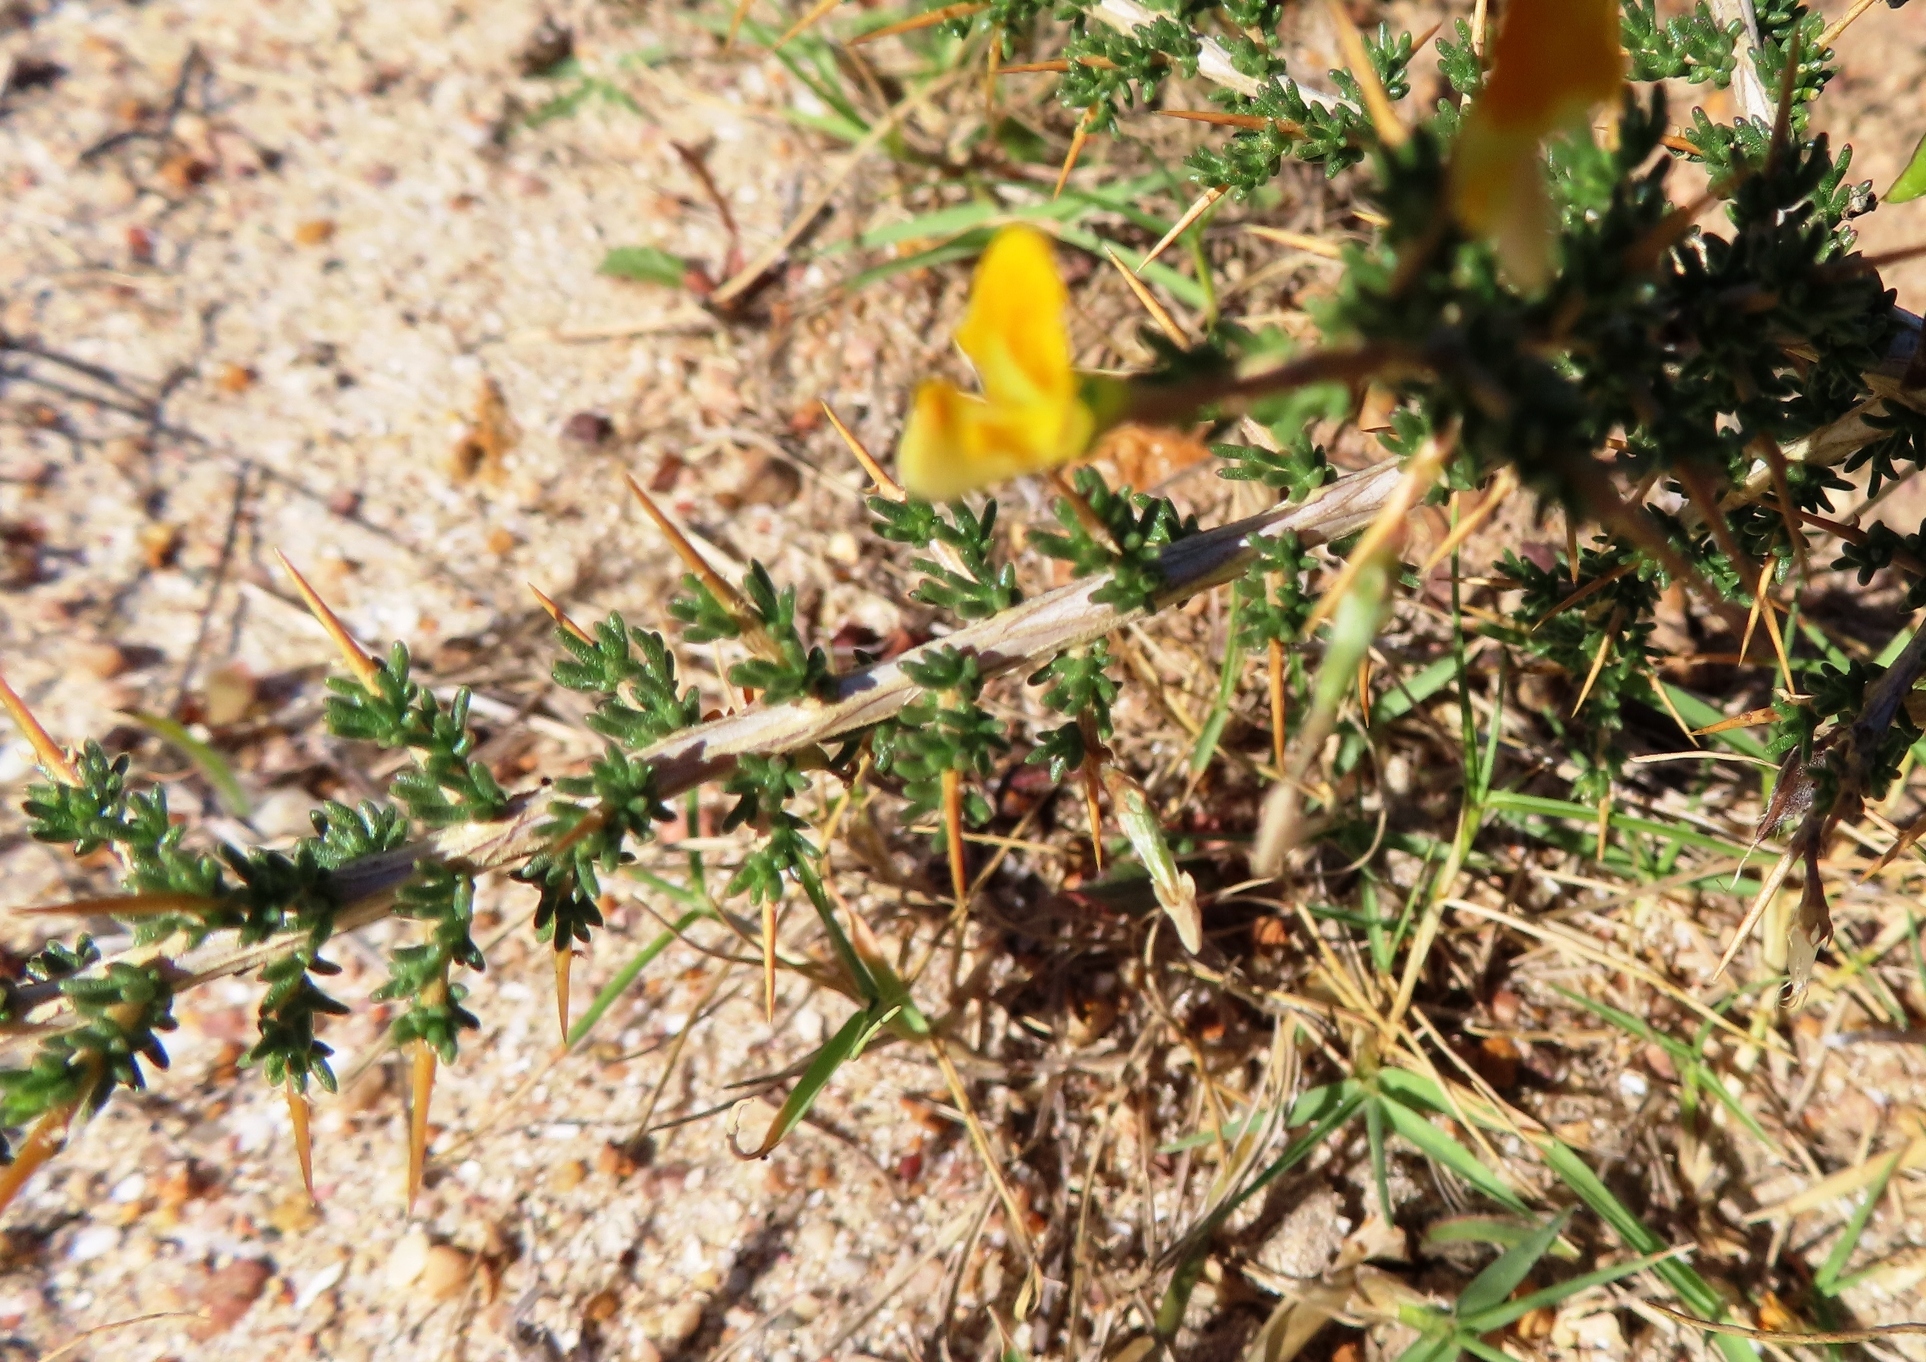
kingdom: Plantae
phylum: Tracheophyta
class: Magnoliopsida
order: Fabales
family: Fabaceae
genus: Aspalathus
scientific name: Aspalathus acuminata
